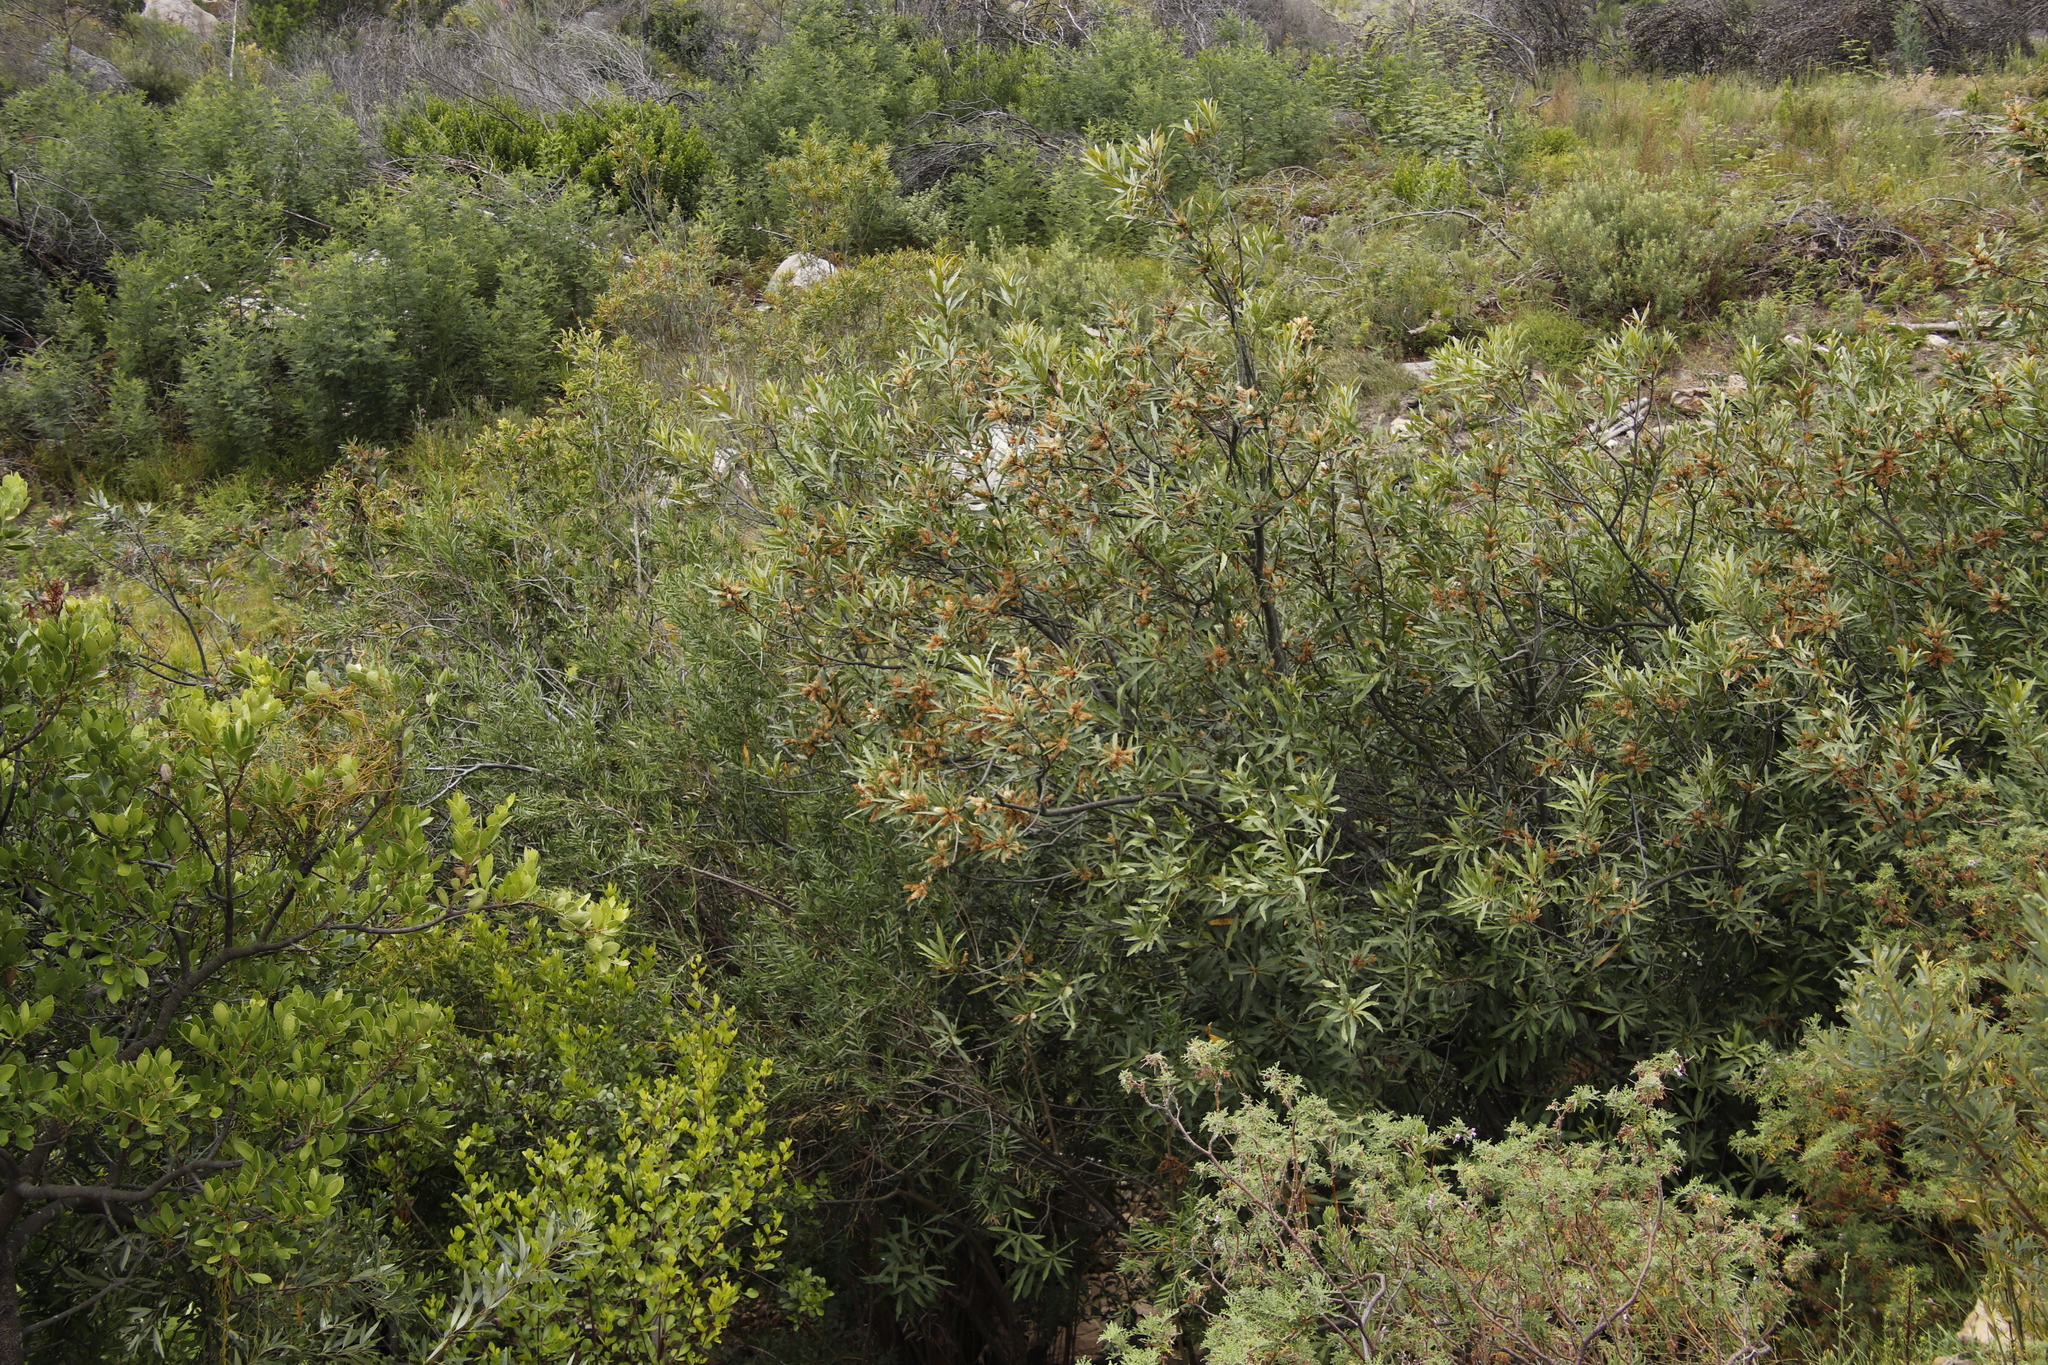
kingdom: Plantae
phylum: Tracheophyta
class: Magnoliopsida
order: Proteales
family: Proteaceae
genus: Brabejum
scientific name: Brabejum stellatifolium
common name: Wild almond
